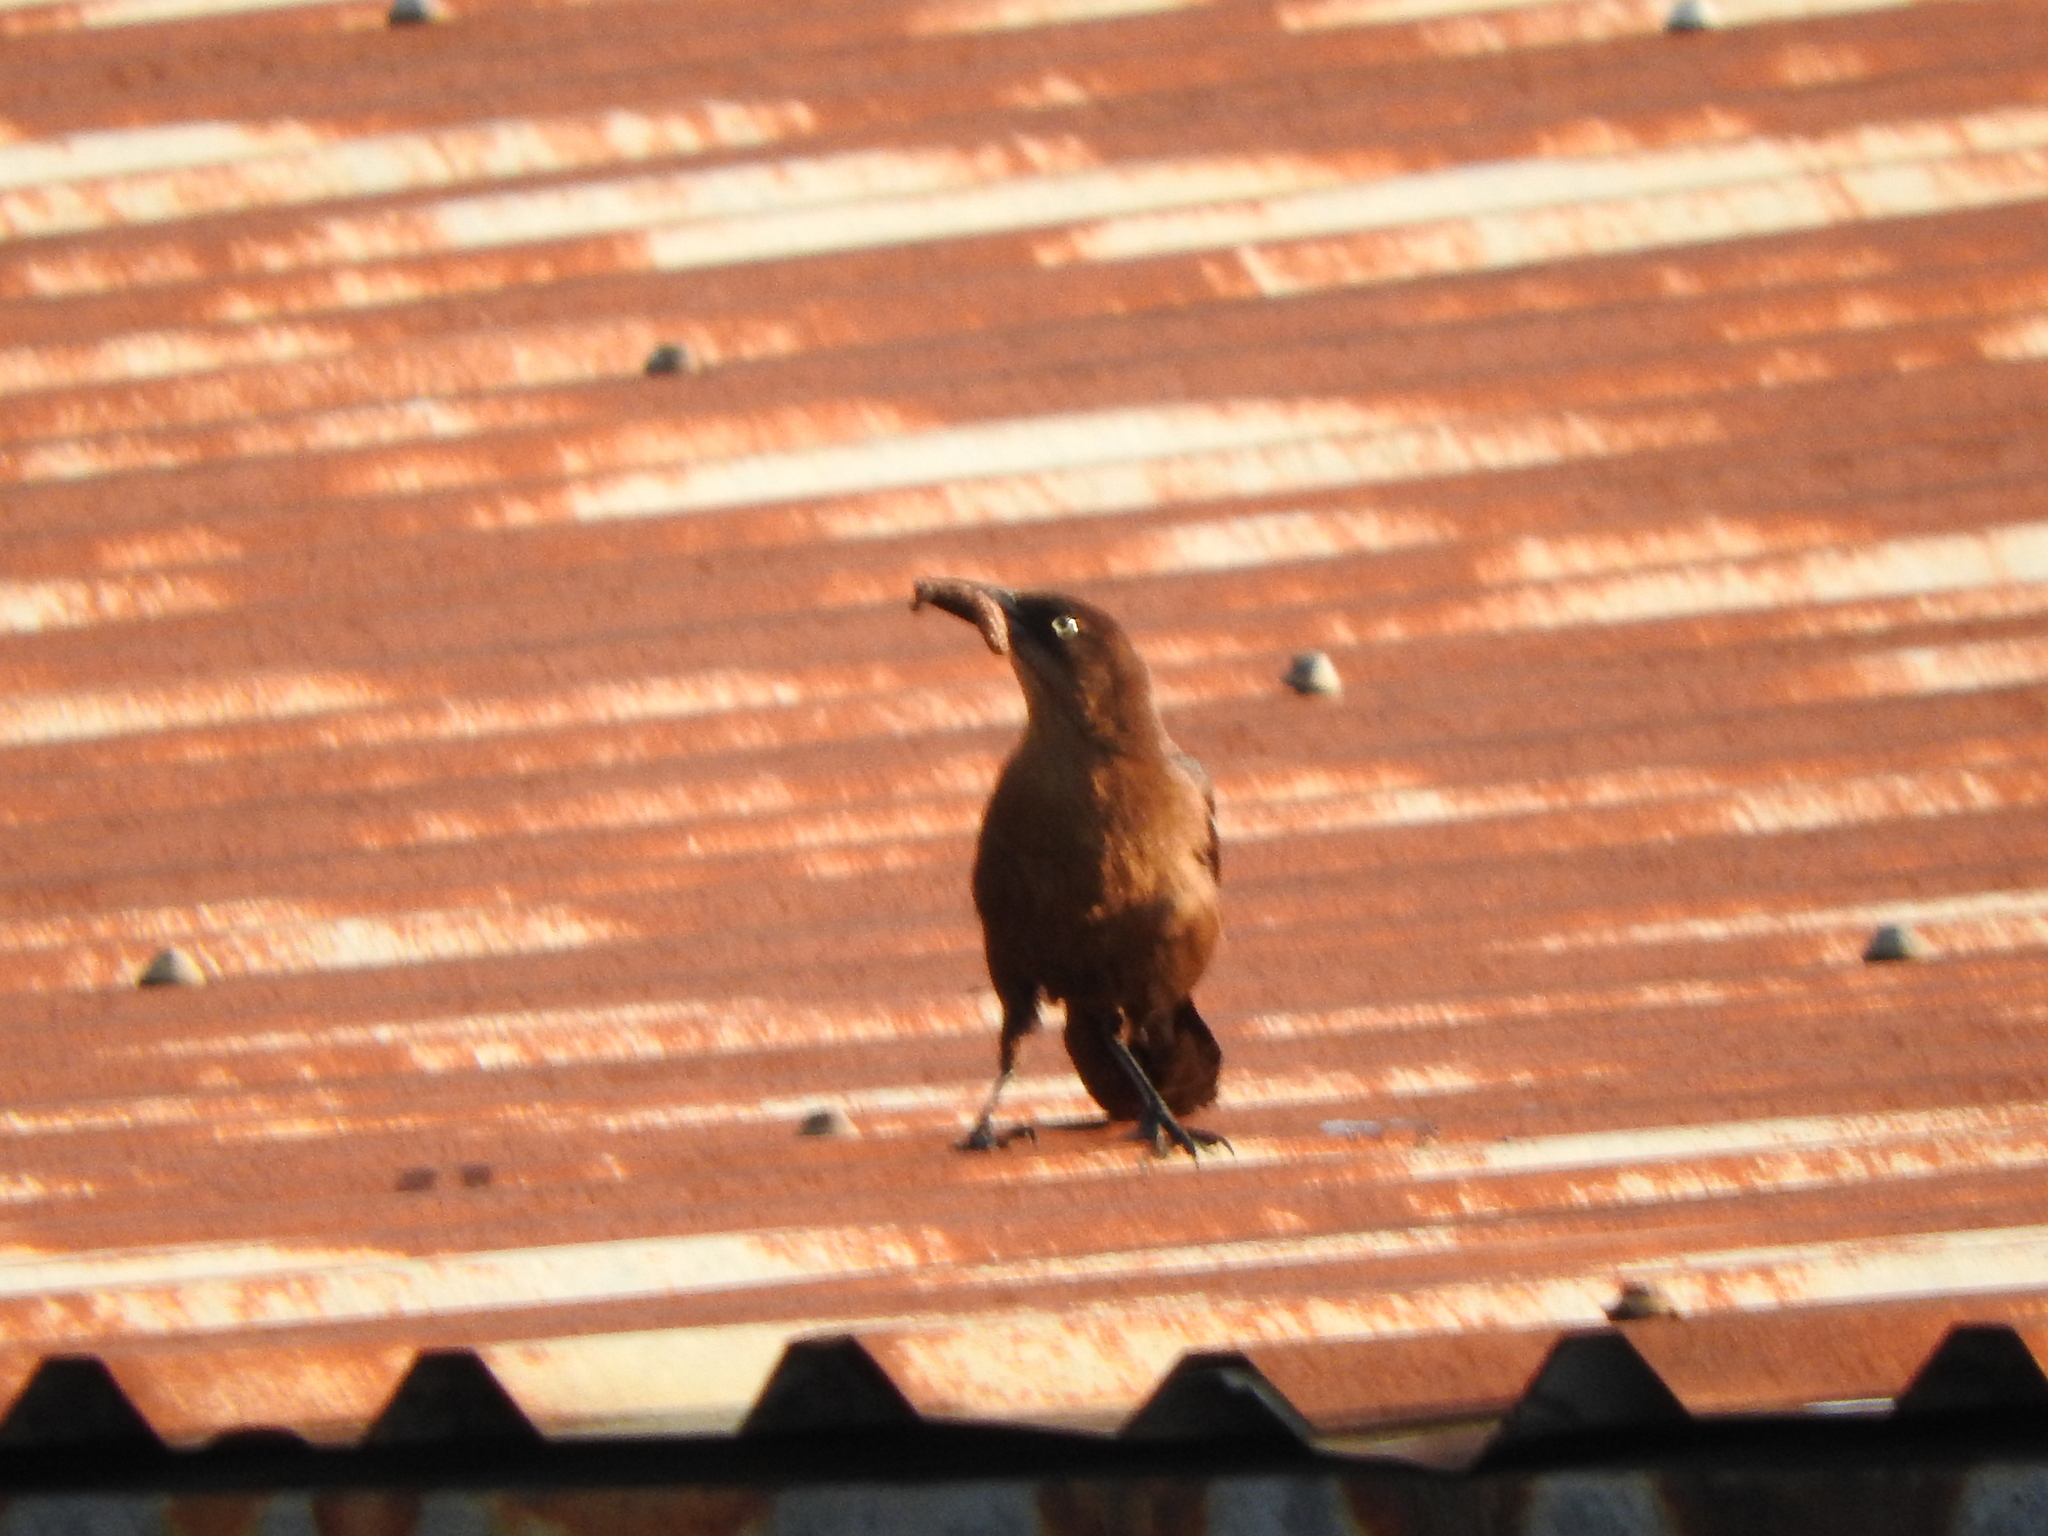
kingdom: Animalia
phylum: Chordata
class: Aves
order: Passeriformes
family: Icteridae
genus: Quiscalus
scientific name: Quiscalus mexicanus
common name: Great-tailed grackle
